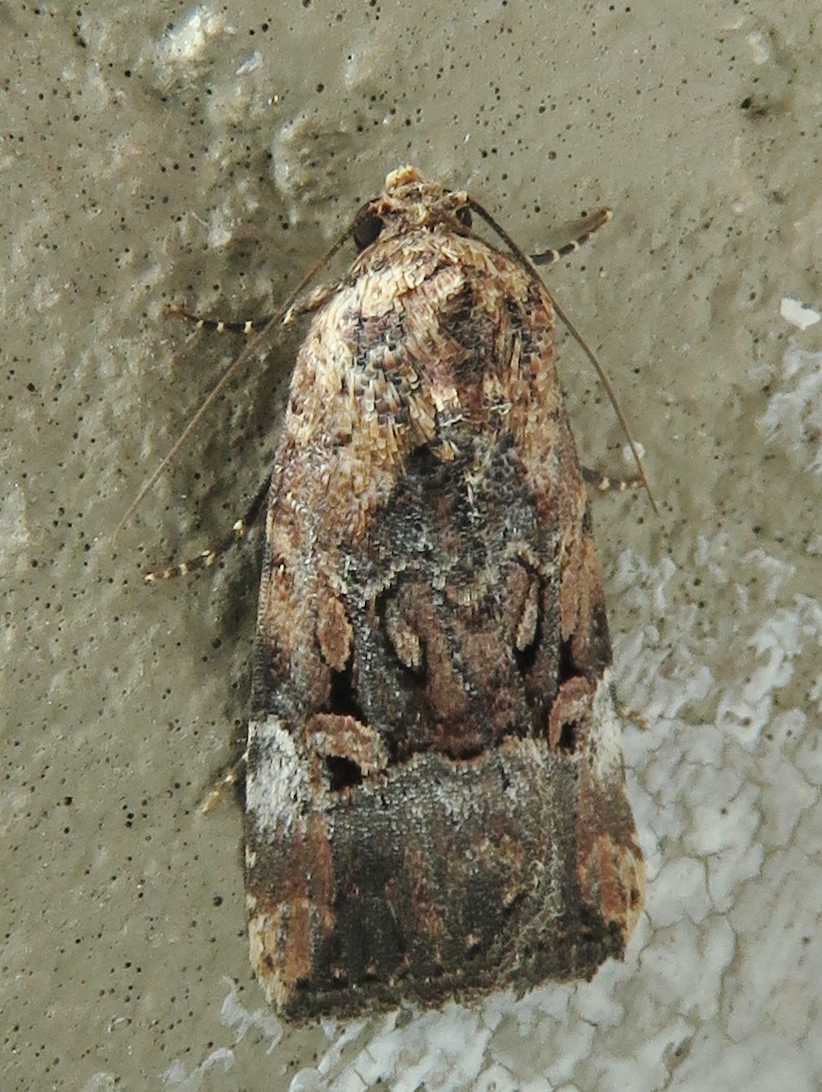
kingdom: Animalia
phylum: Arthropoda
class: Insecta
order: Lepidoptera
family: Noctuidae
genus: Elaphria
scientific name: Elaphria chalcedonia
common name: Chalcedony midget
